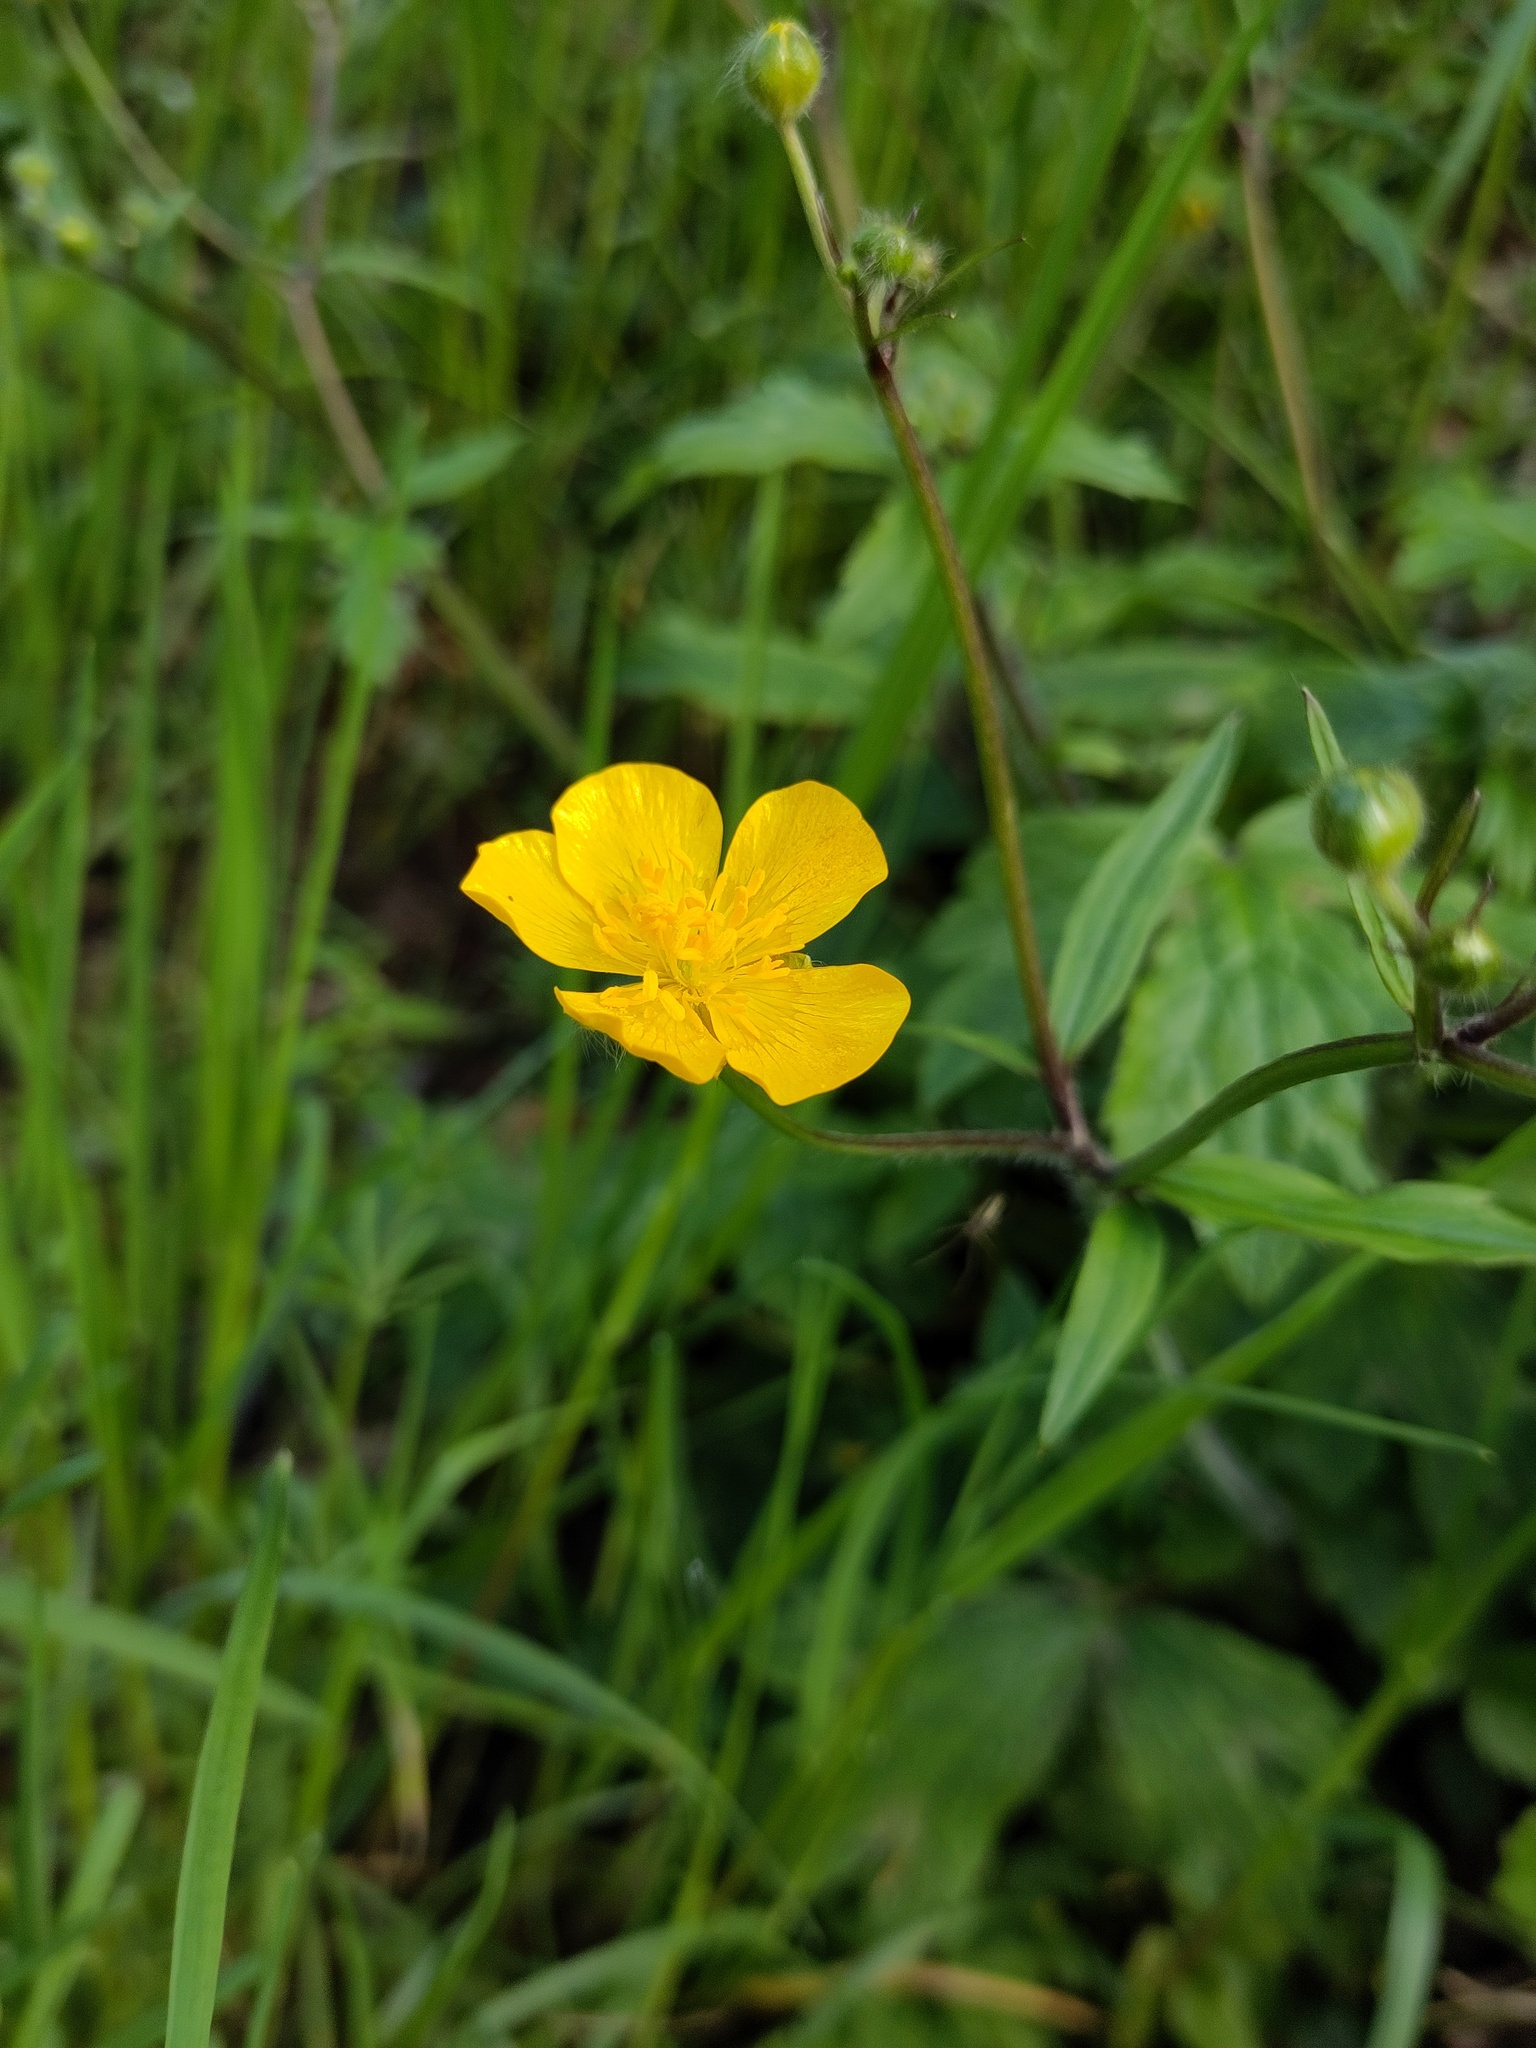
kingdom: Plantae
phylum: Tracheophyta
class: Magnoliopsida
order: Ranunculales
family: Ranunculaceae
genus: Ranunculus
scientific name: Ranunculus lanuginosus
